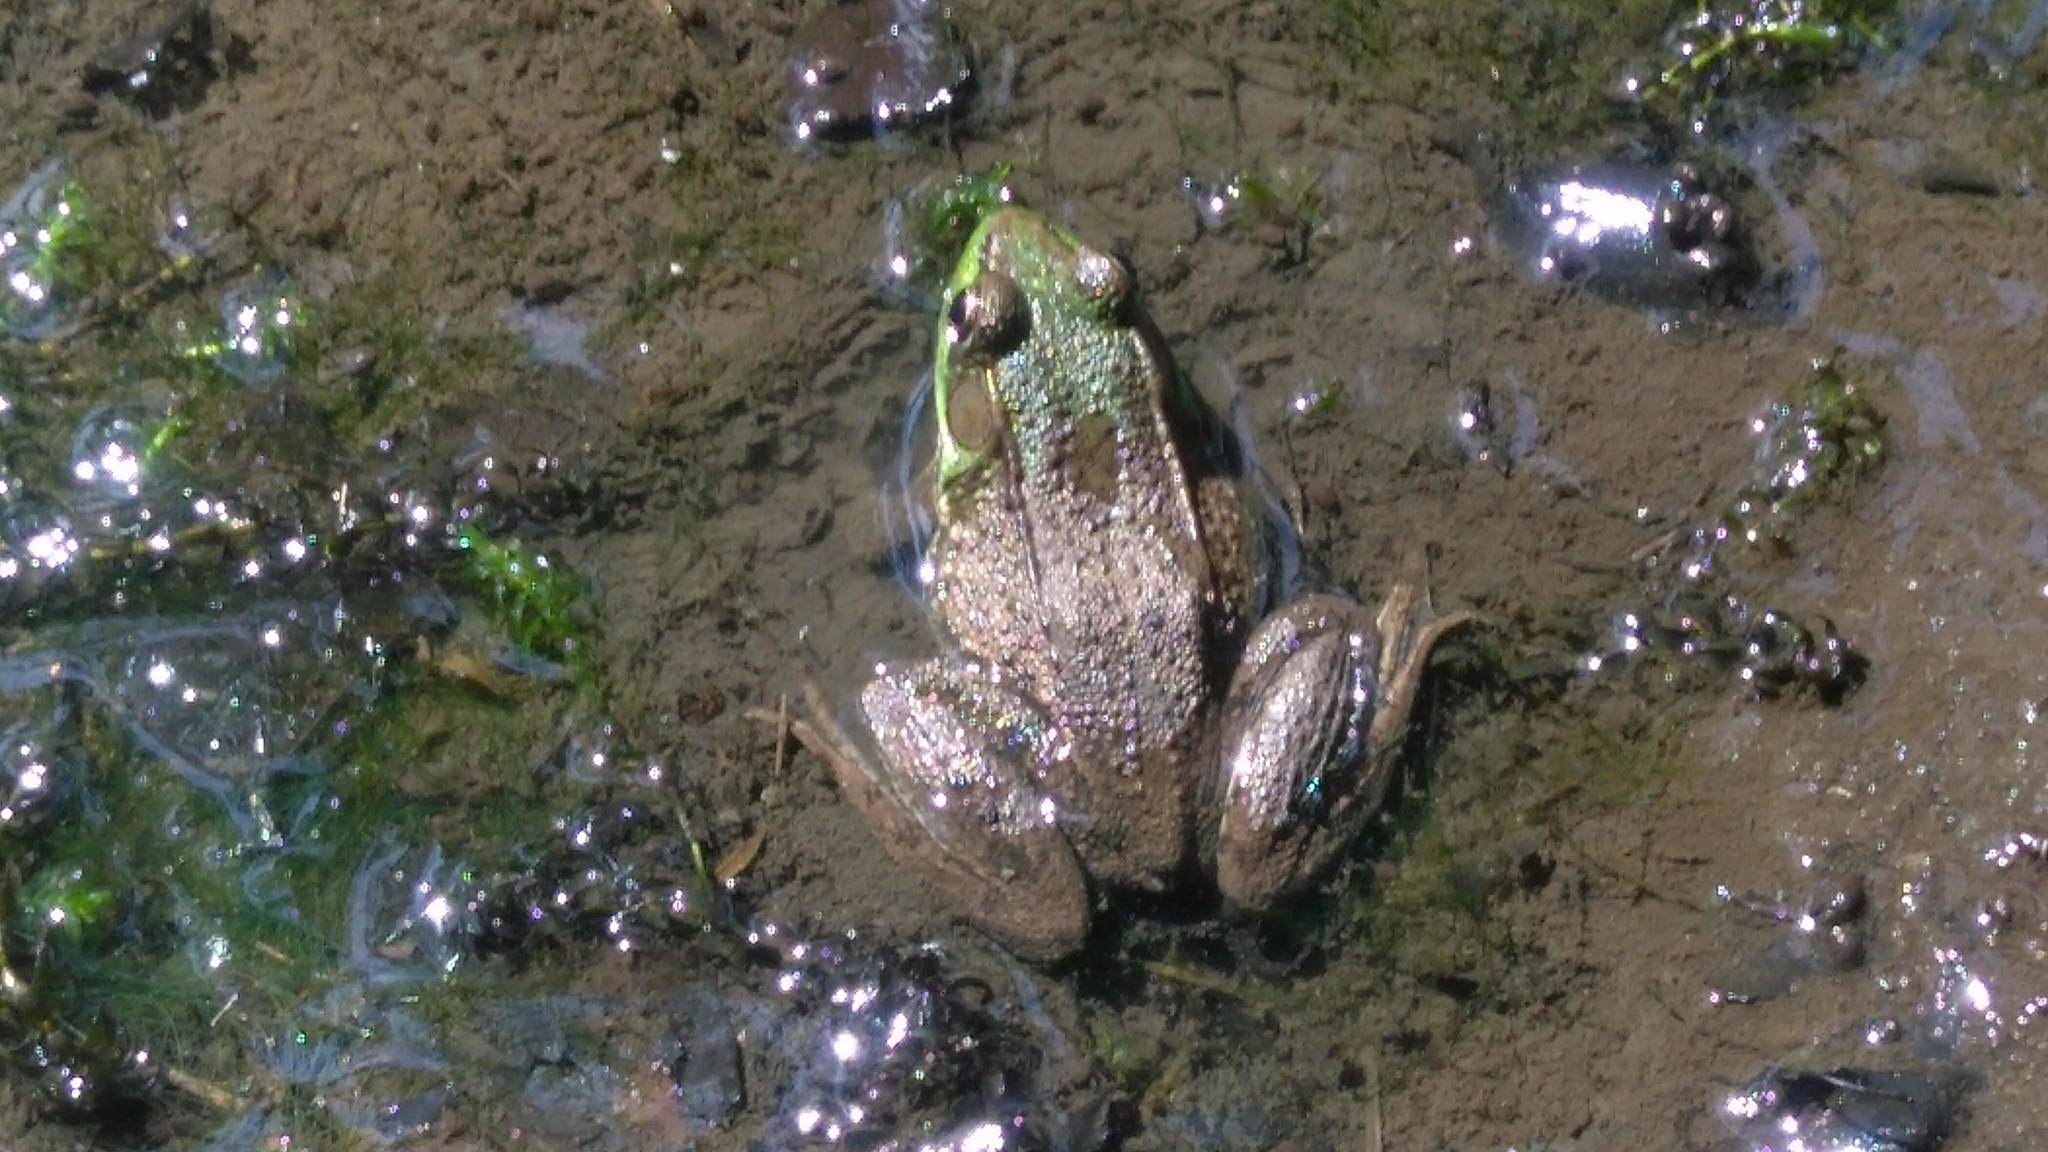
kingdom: Animalia
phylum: Chordata
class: Amphibia
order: Anura
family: Ranidae
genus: Lithobates
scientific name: Lithobates clamitans
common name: Green frog
